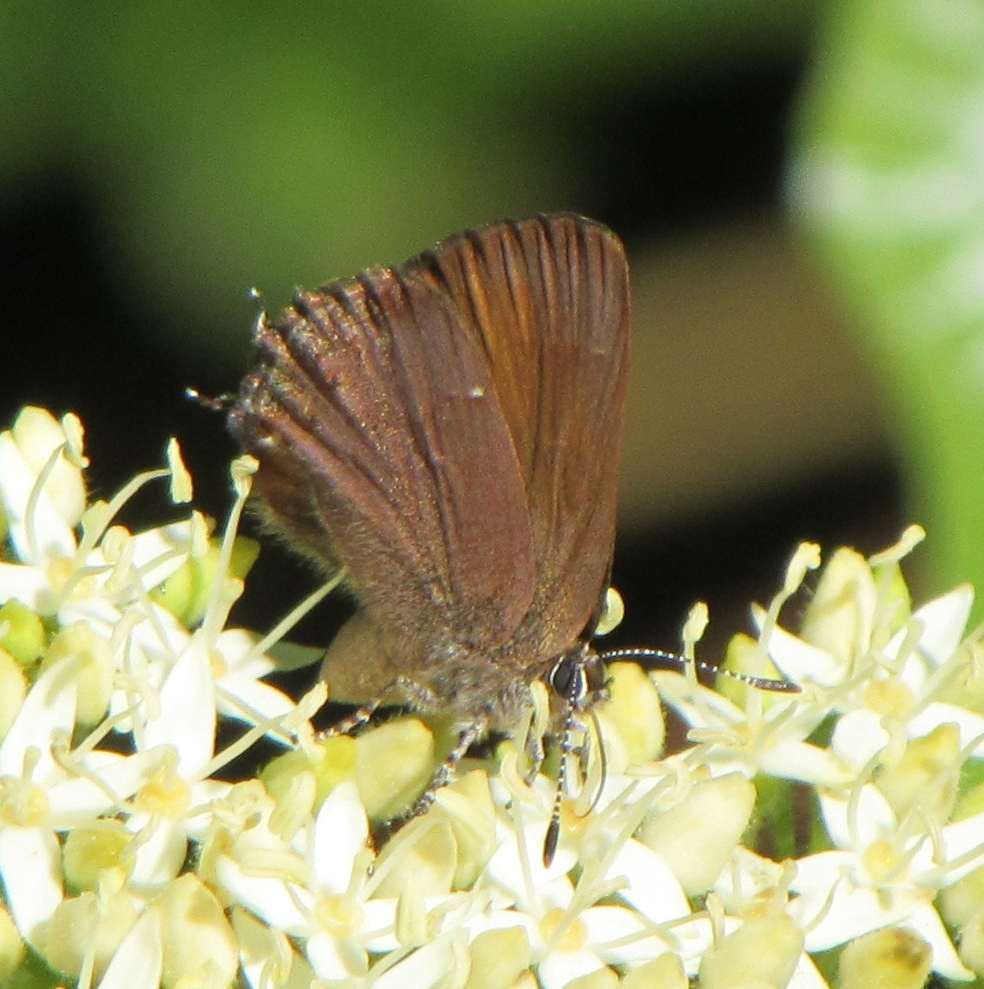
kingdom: Animalia
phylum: Arthropoda
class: Insecta
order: Lepidoptera
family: Lycaenidae
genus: Mitoura
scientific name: Mitoura nelsoni
